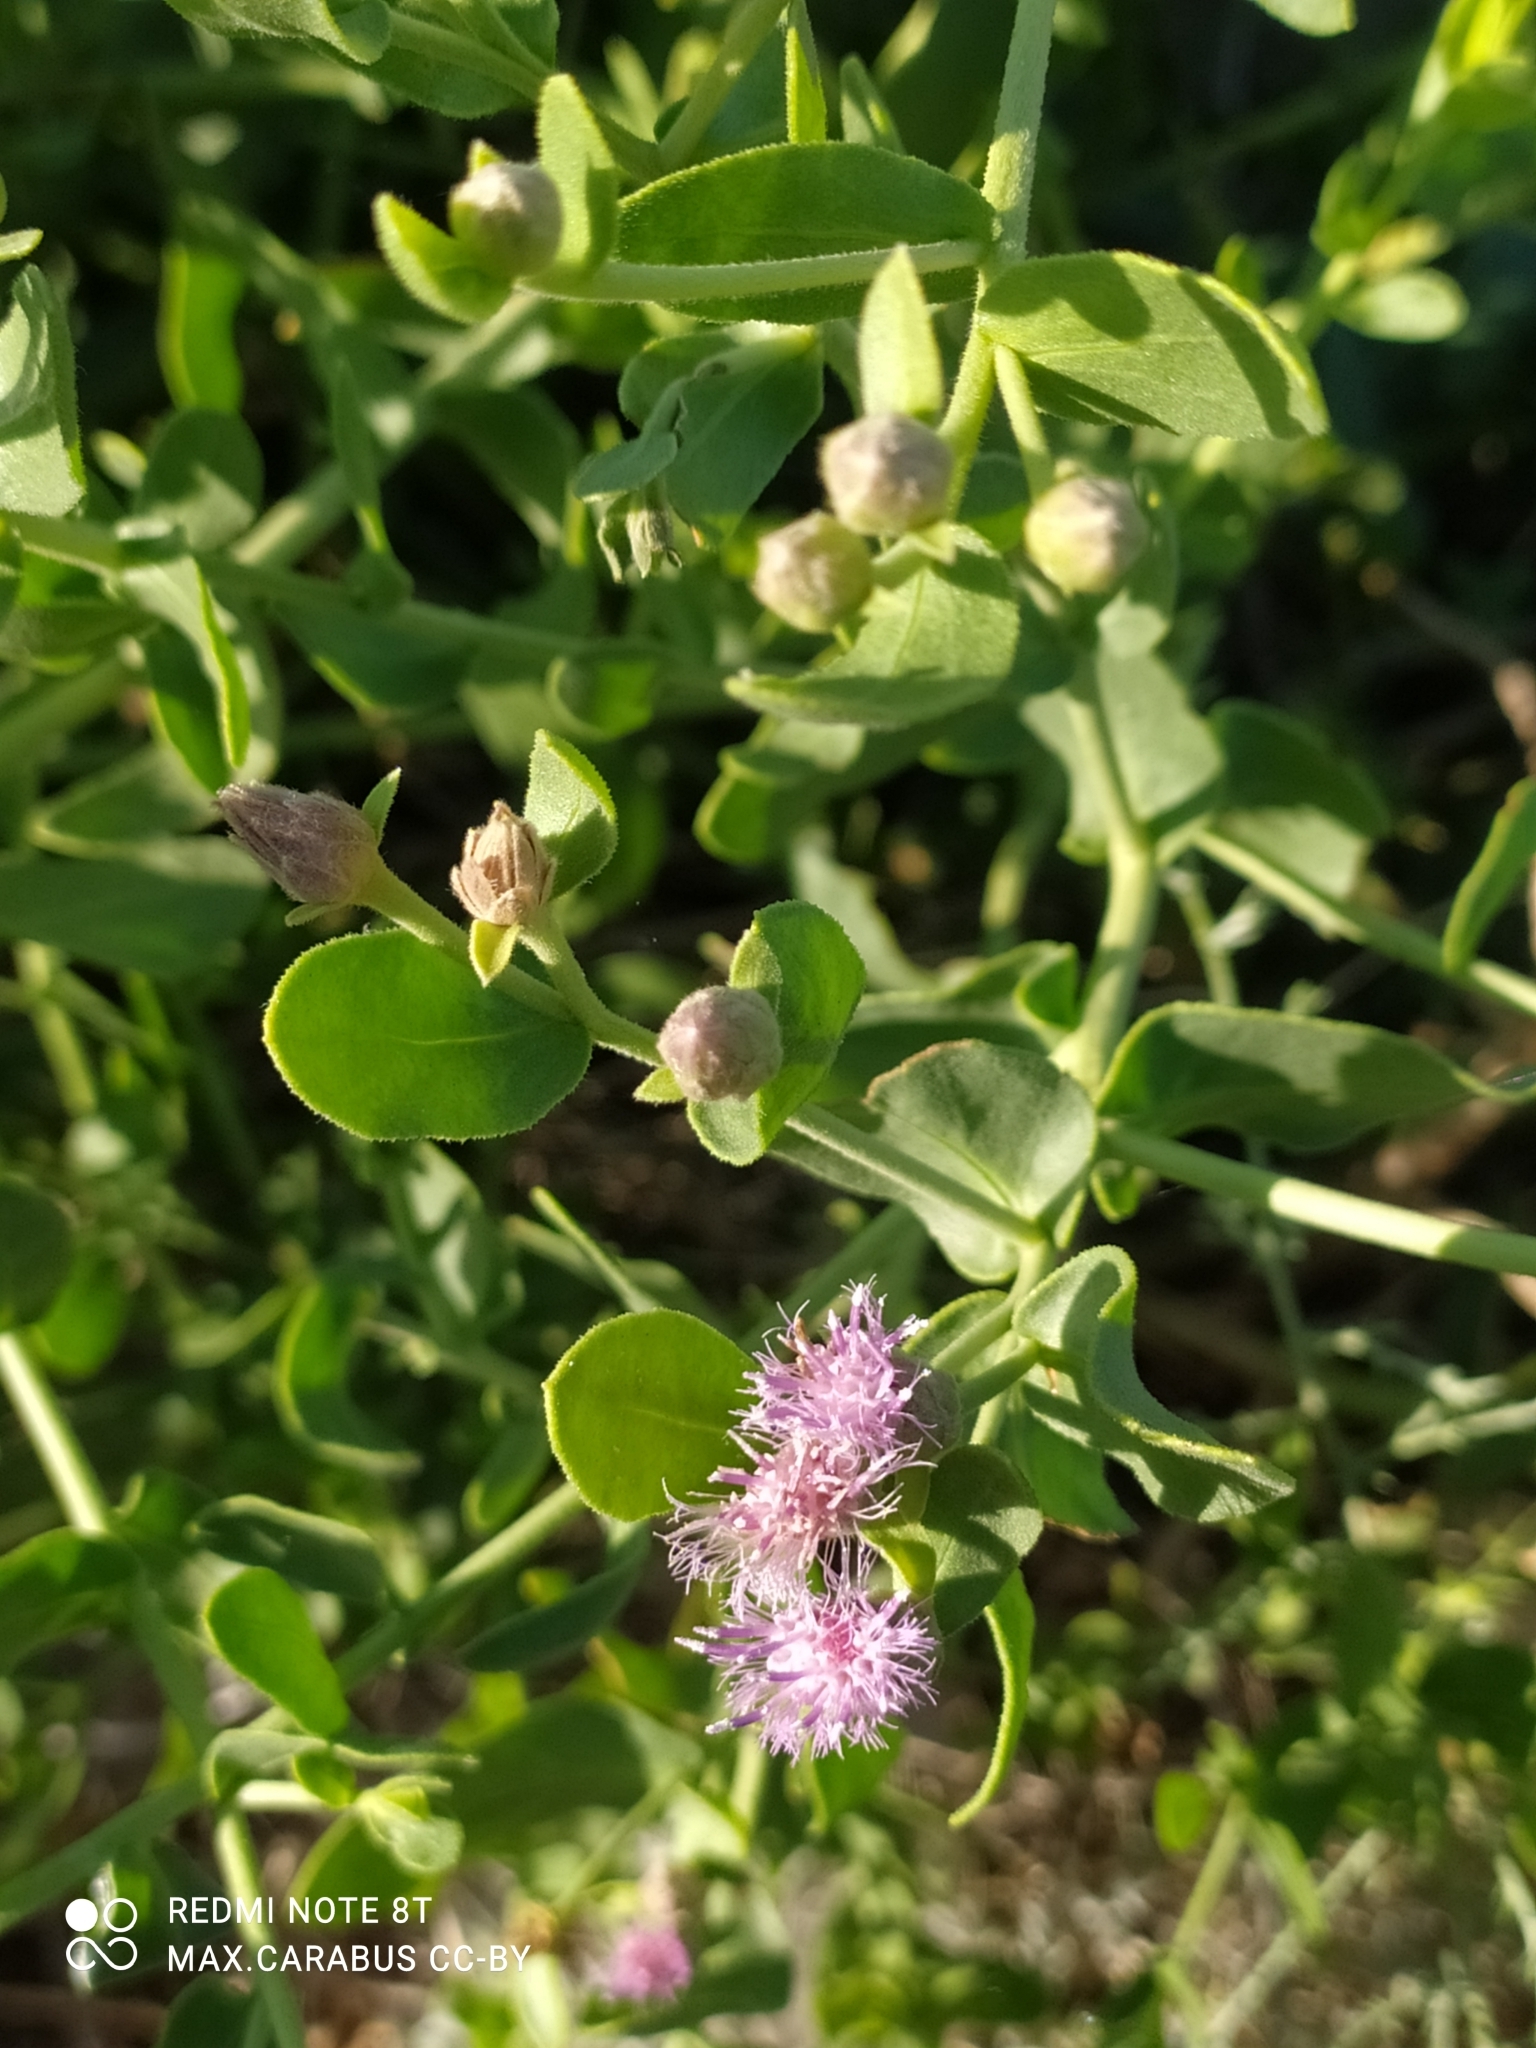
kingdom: Plantae
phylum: Tracheophyta
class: Magnoliopsida
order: Asterales
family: Asteraceae
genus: Karelinia
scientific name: Karelinia caspia
